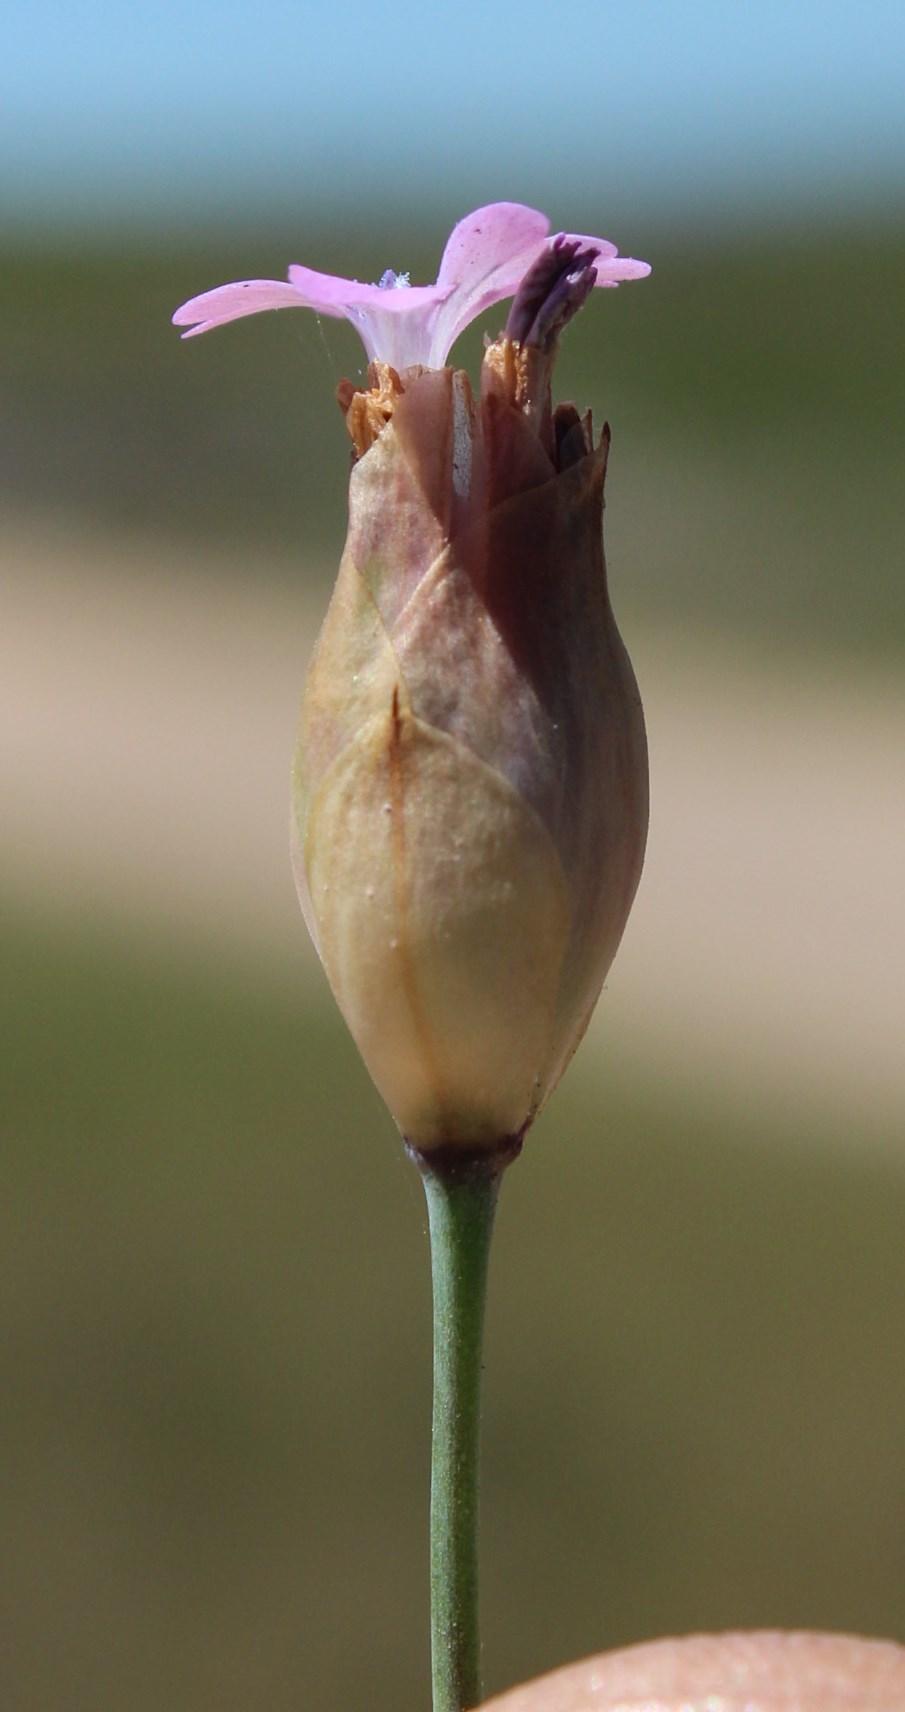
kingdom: Plantae
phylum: Tracheophyta
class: Magnoliopsida
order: Caryophyllales
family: Caryophyllaceae
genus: Petrorhagia
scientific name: Petrorhagia dubia
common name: Hairypink
